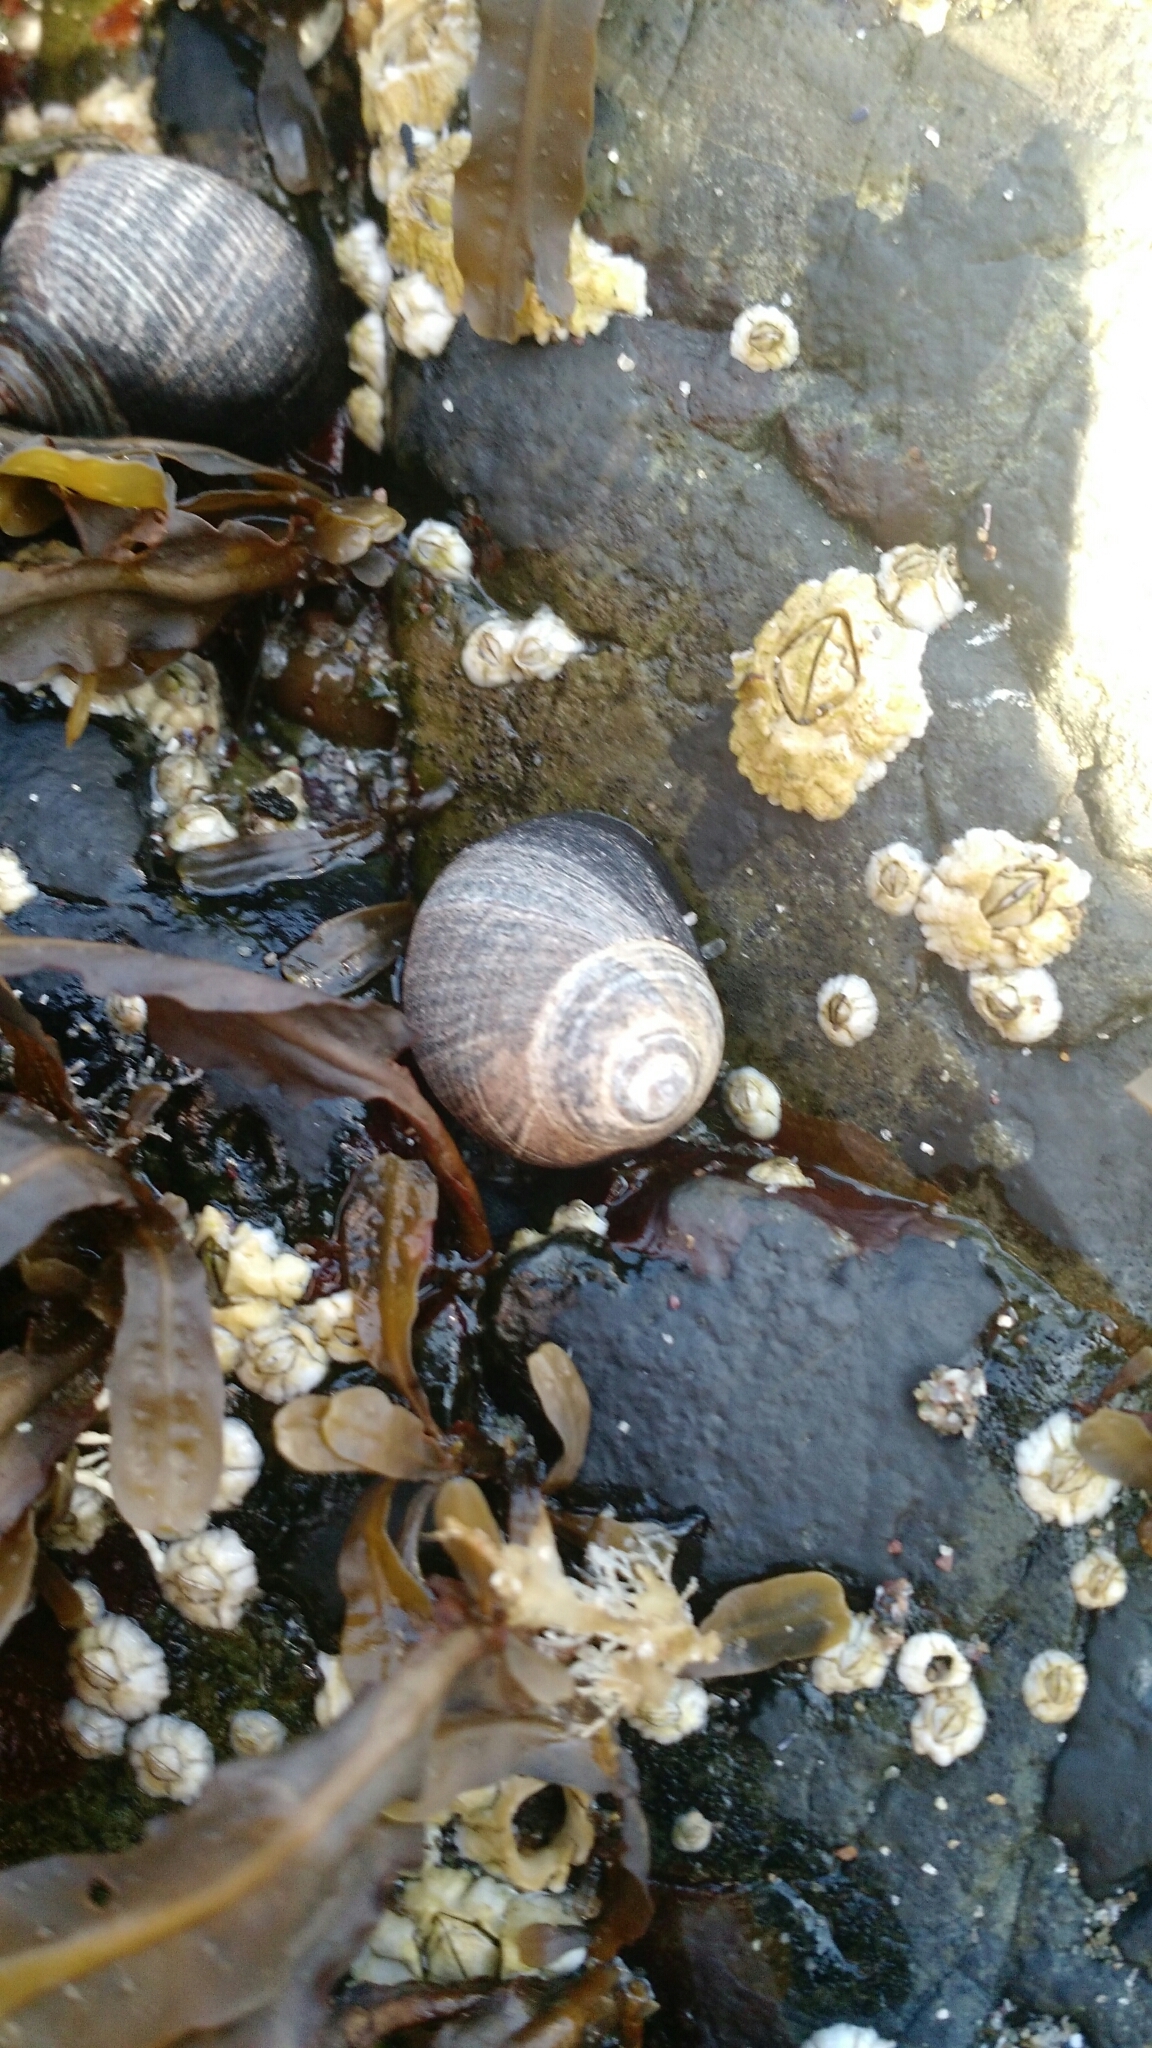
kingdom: Animalia
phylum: Mollusca
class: Gastropoda
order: Littorinimorpha
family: Littorinidae
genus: Littorina
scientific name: Littorina littorea
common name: Common periwinkle
